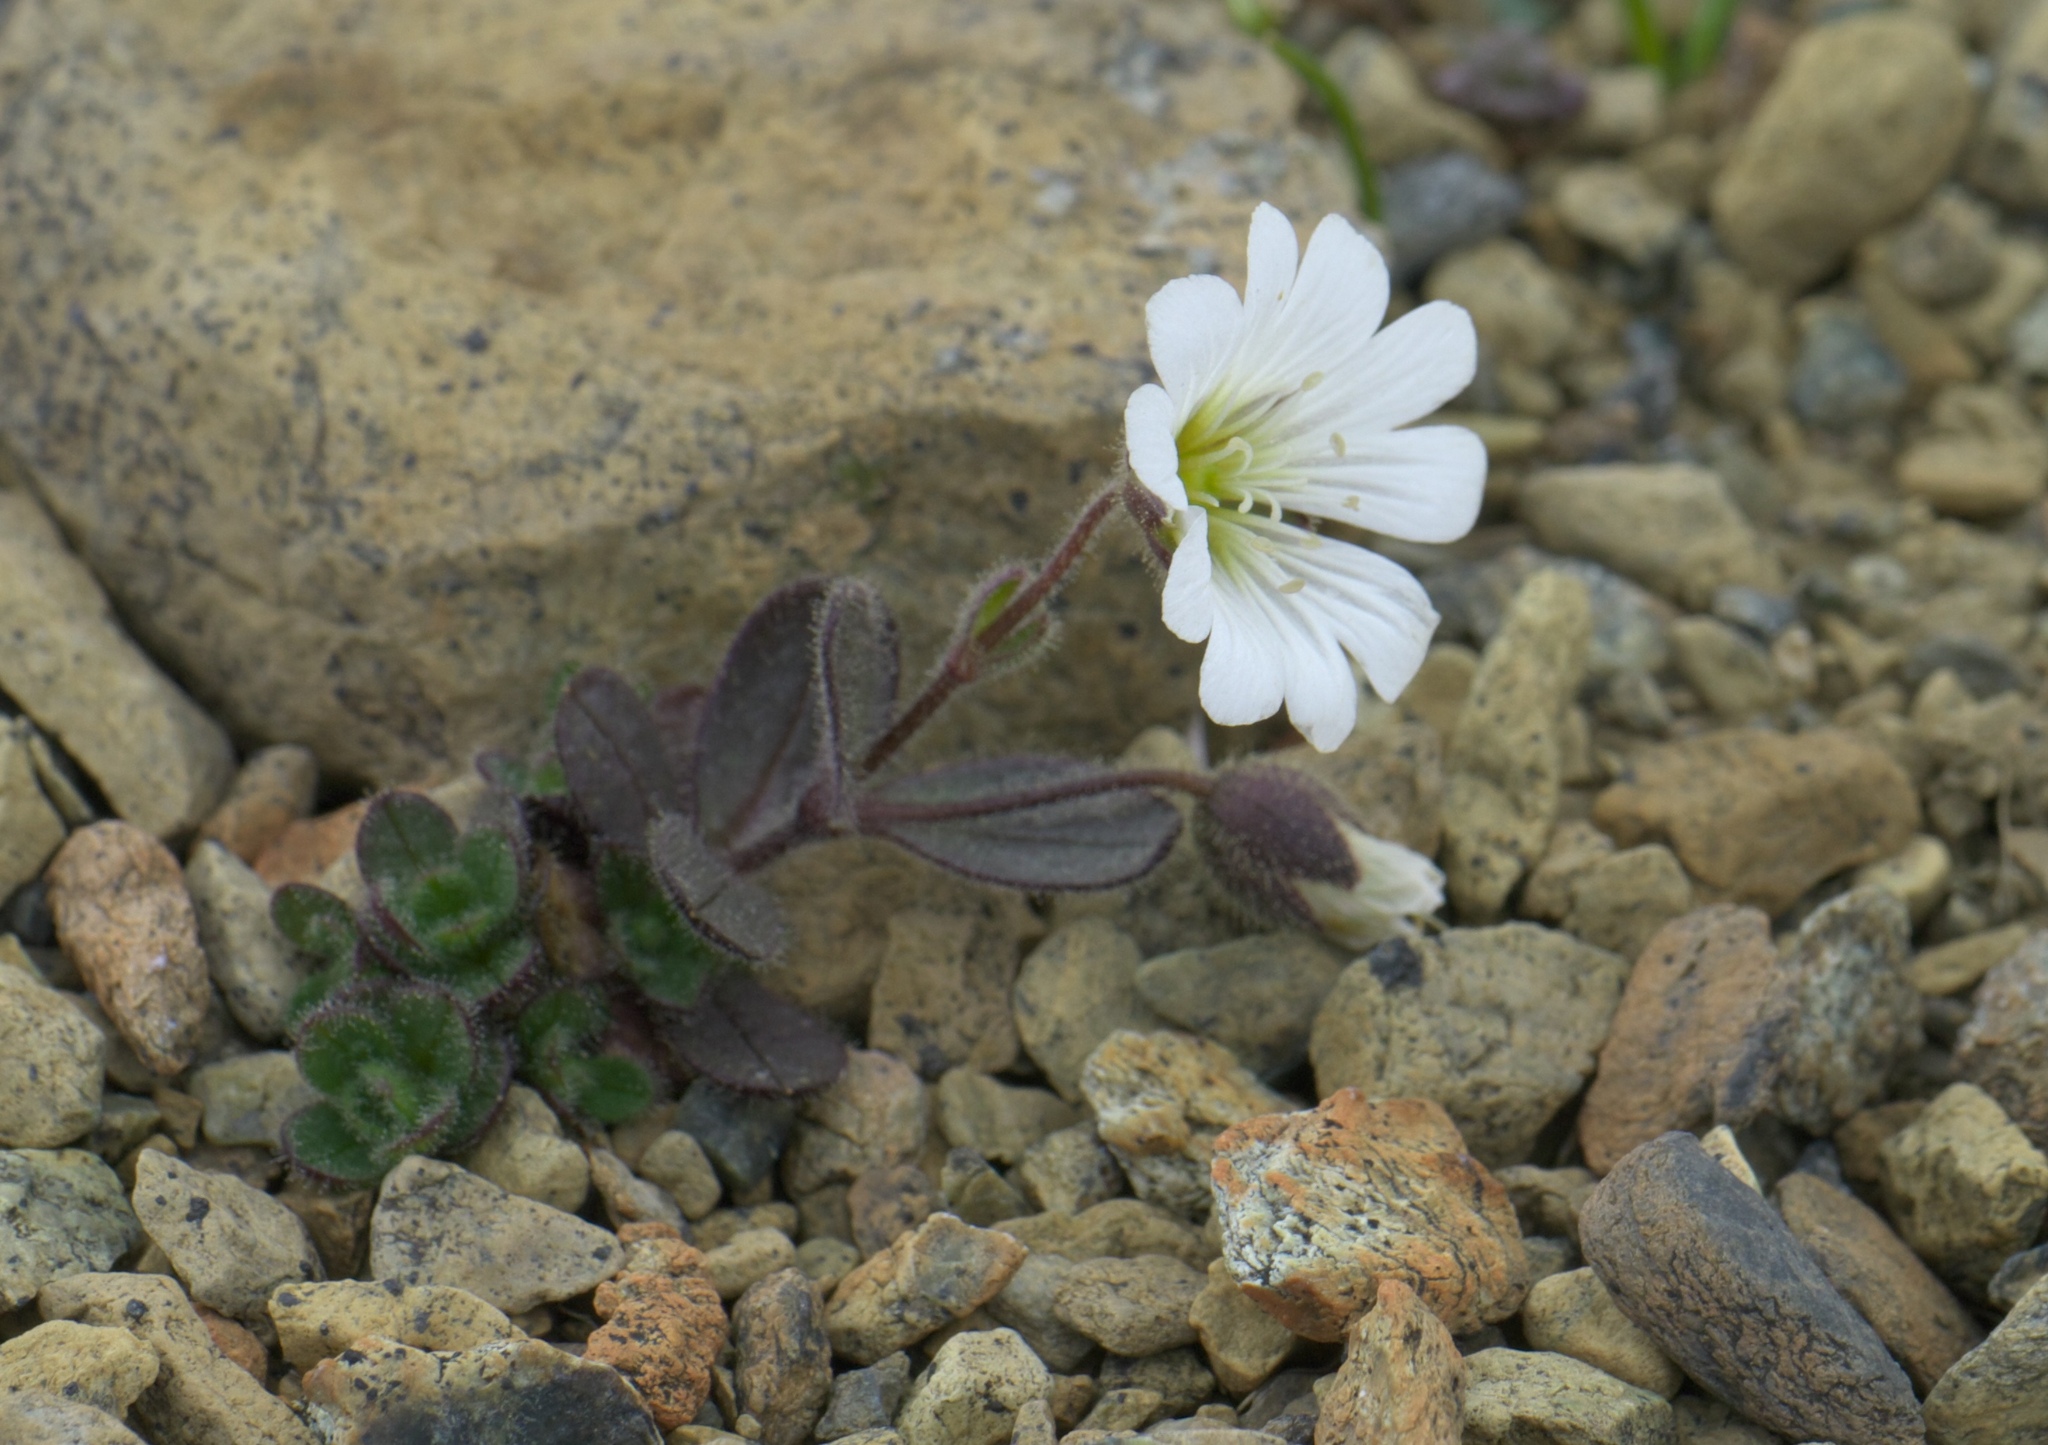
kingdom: Plantae
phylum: Tracheophyta
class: Magnoliopsida
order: Caryophyllales
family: Caryophyllaceae
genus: Cerastium
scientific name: Cerastium nigrescens
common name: Shetland mouse-ear
